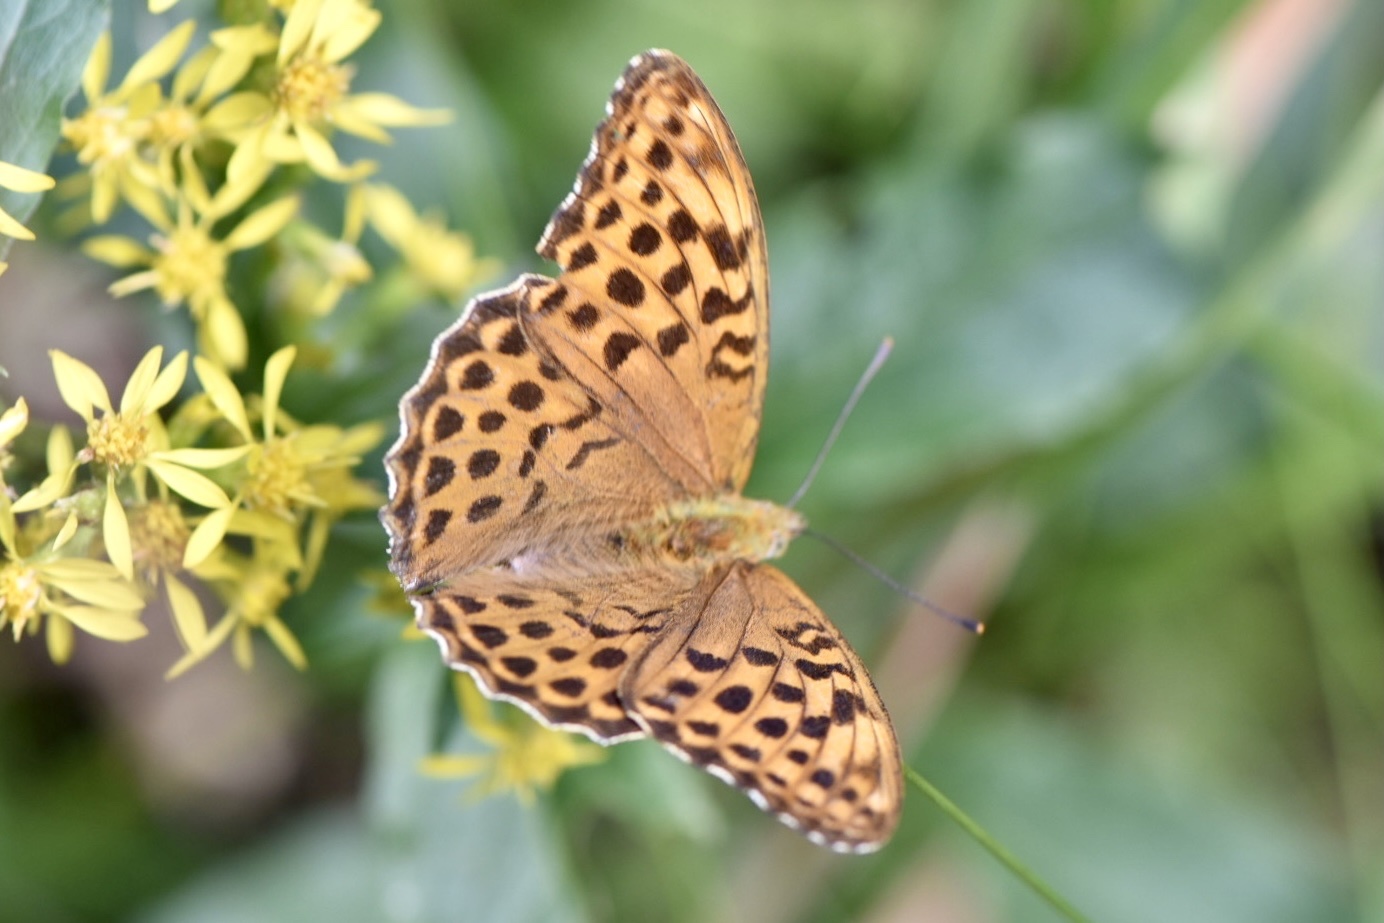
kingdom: Animalia
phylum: Arthropoda
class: Insecta
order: Lepidoptera
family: Nymphalidae
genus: Argynnis
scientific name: Argynnis paphia
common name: Silver-washed fritillary
